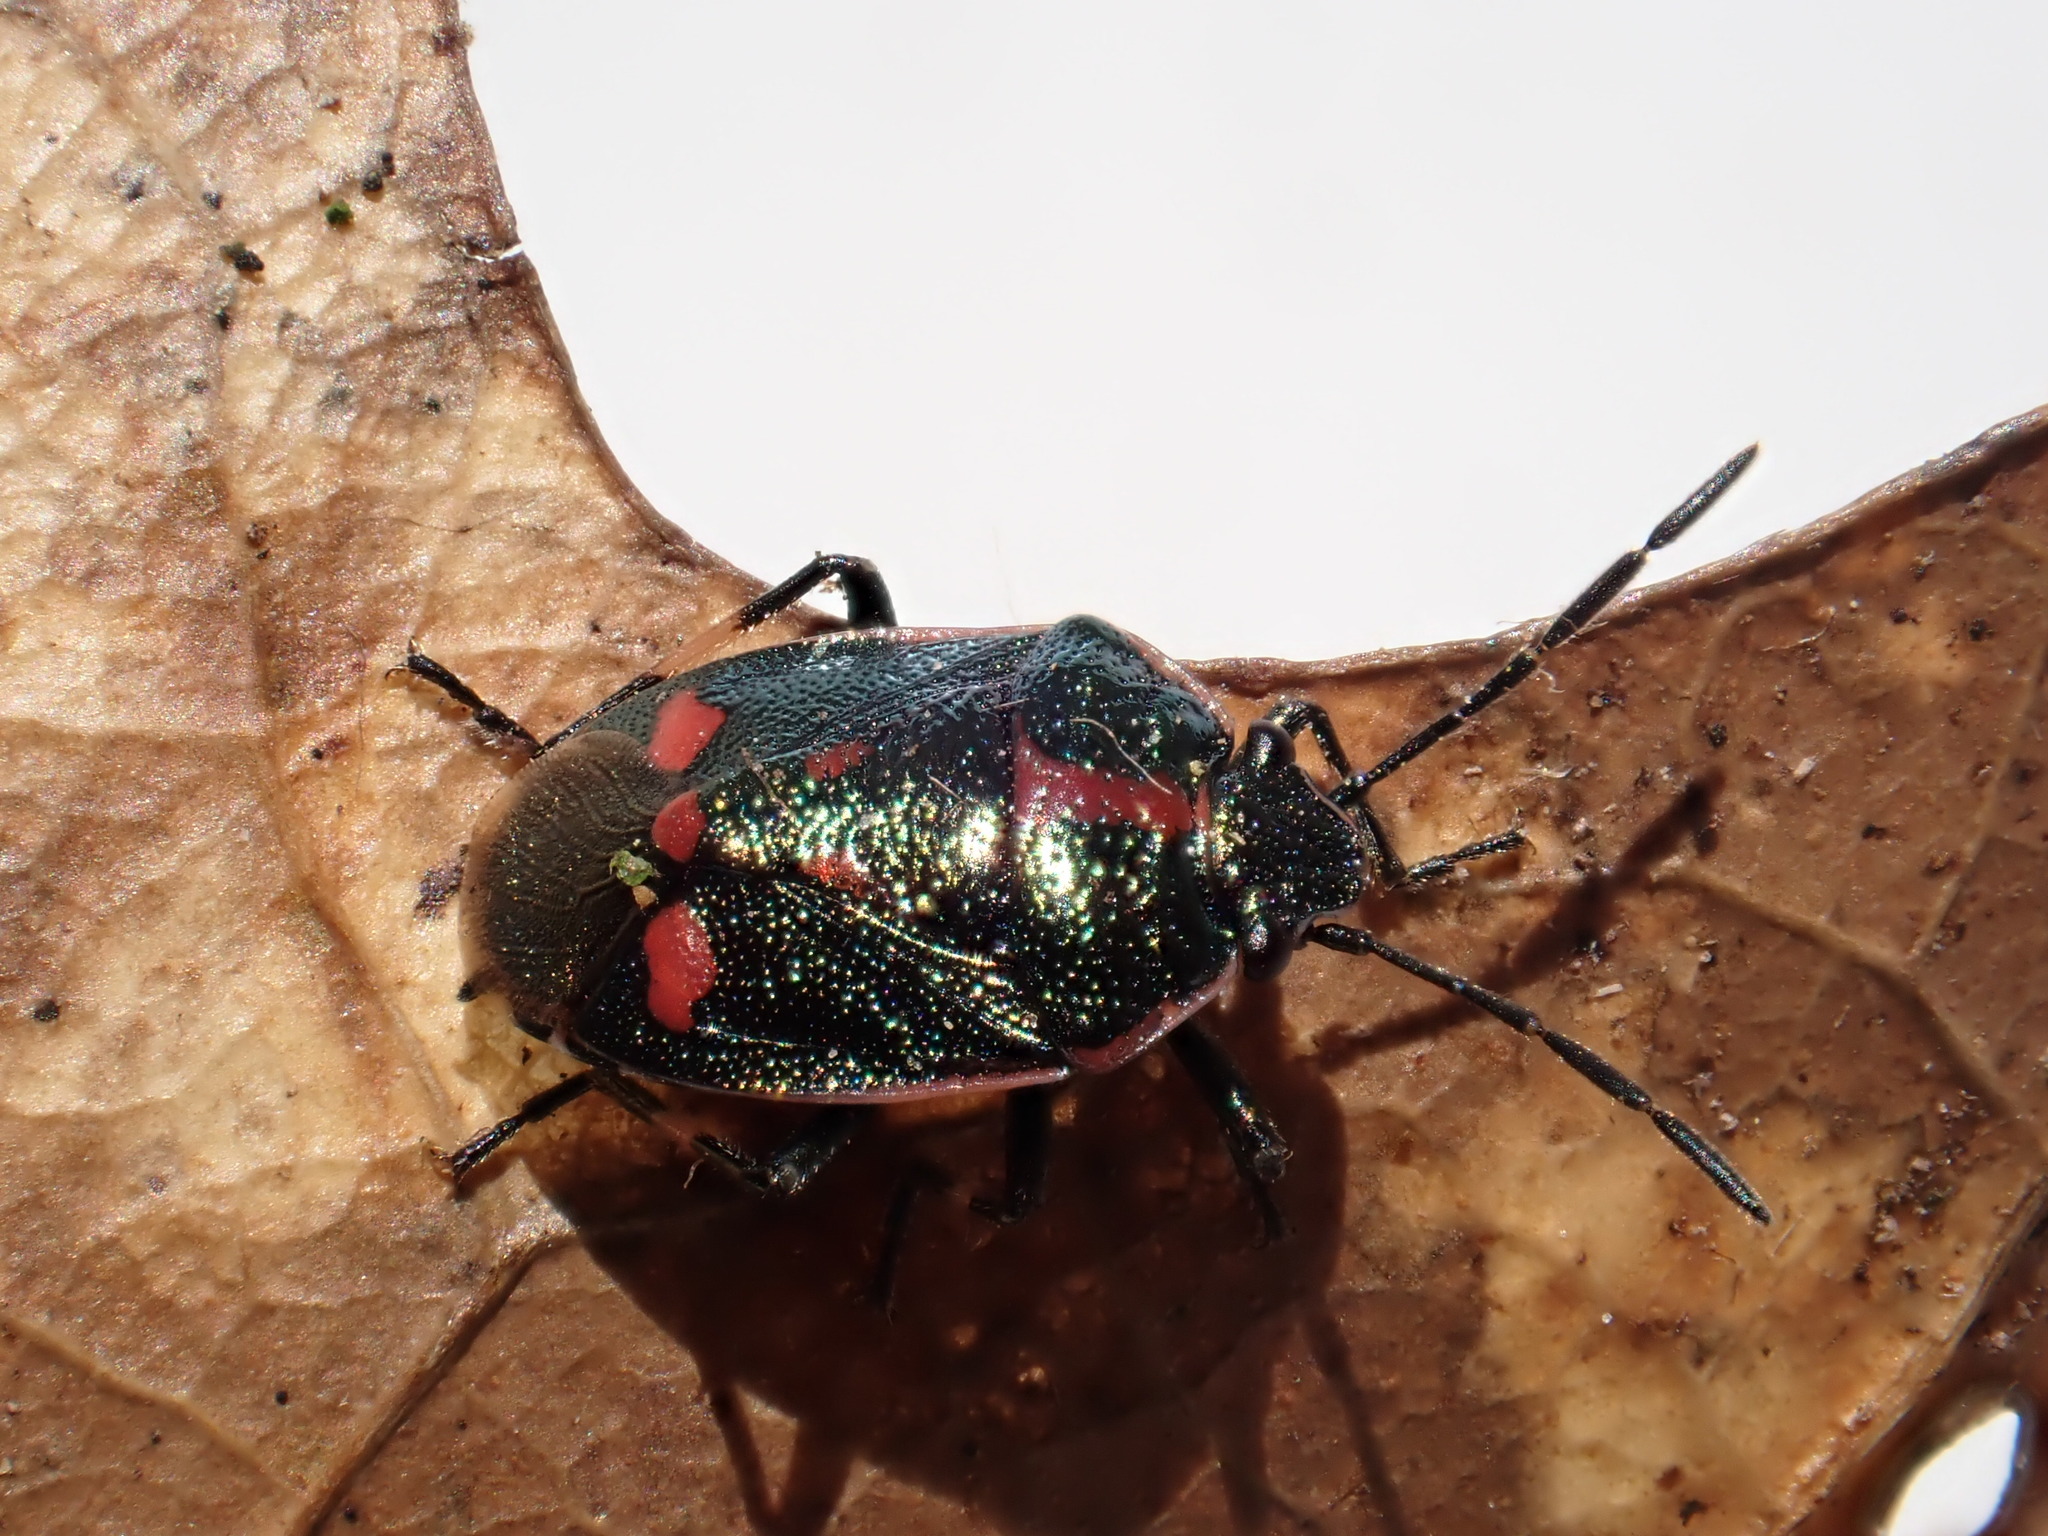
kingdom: Animalia
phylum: Arthropoda
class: Insecta
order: Hemiptera
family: Pentatomidae
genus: Eurydema
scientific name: Eurydema oleracea
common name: Cabbage bug
